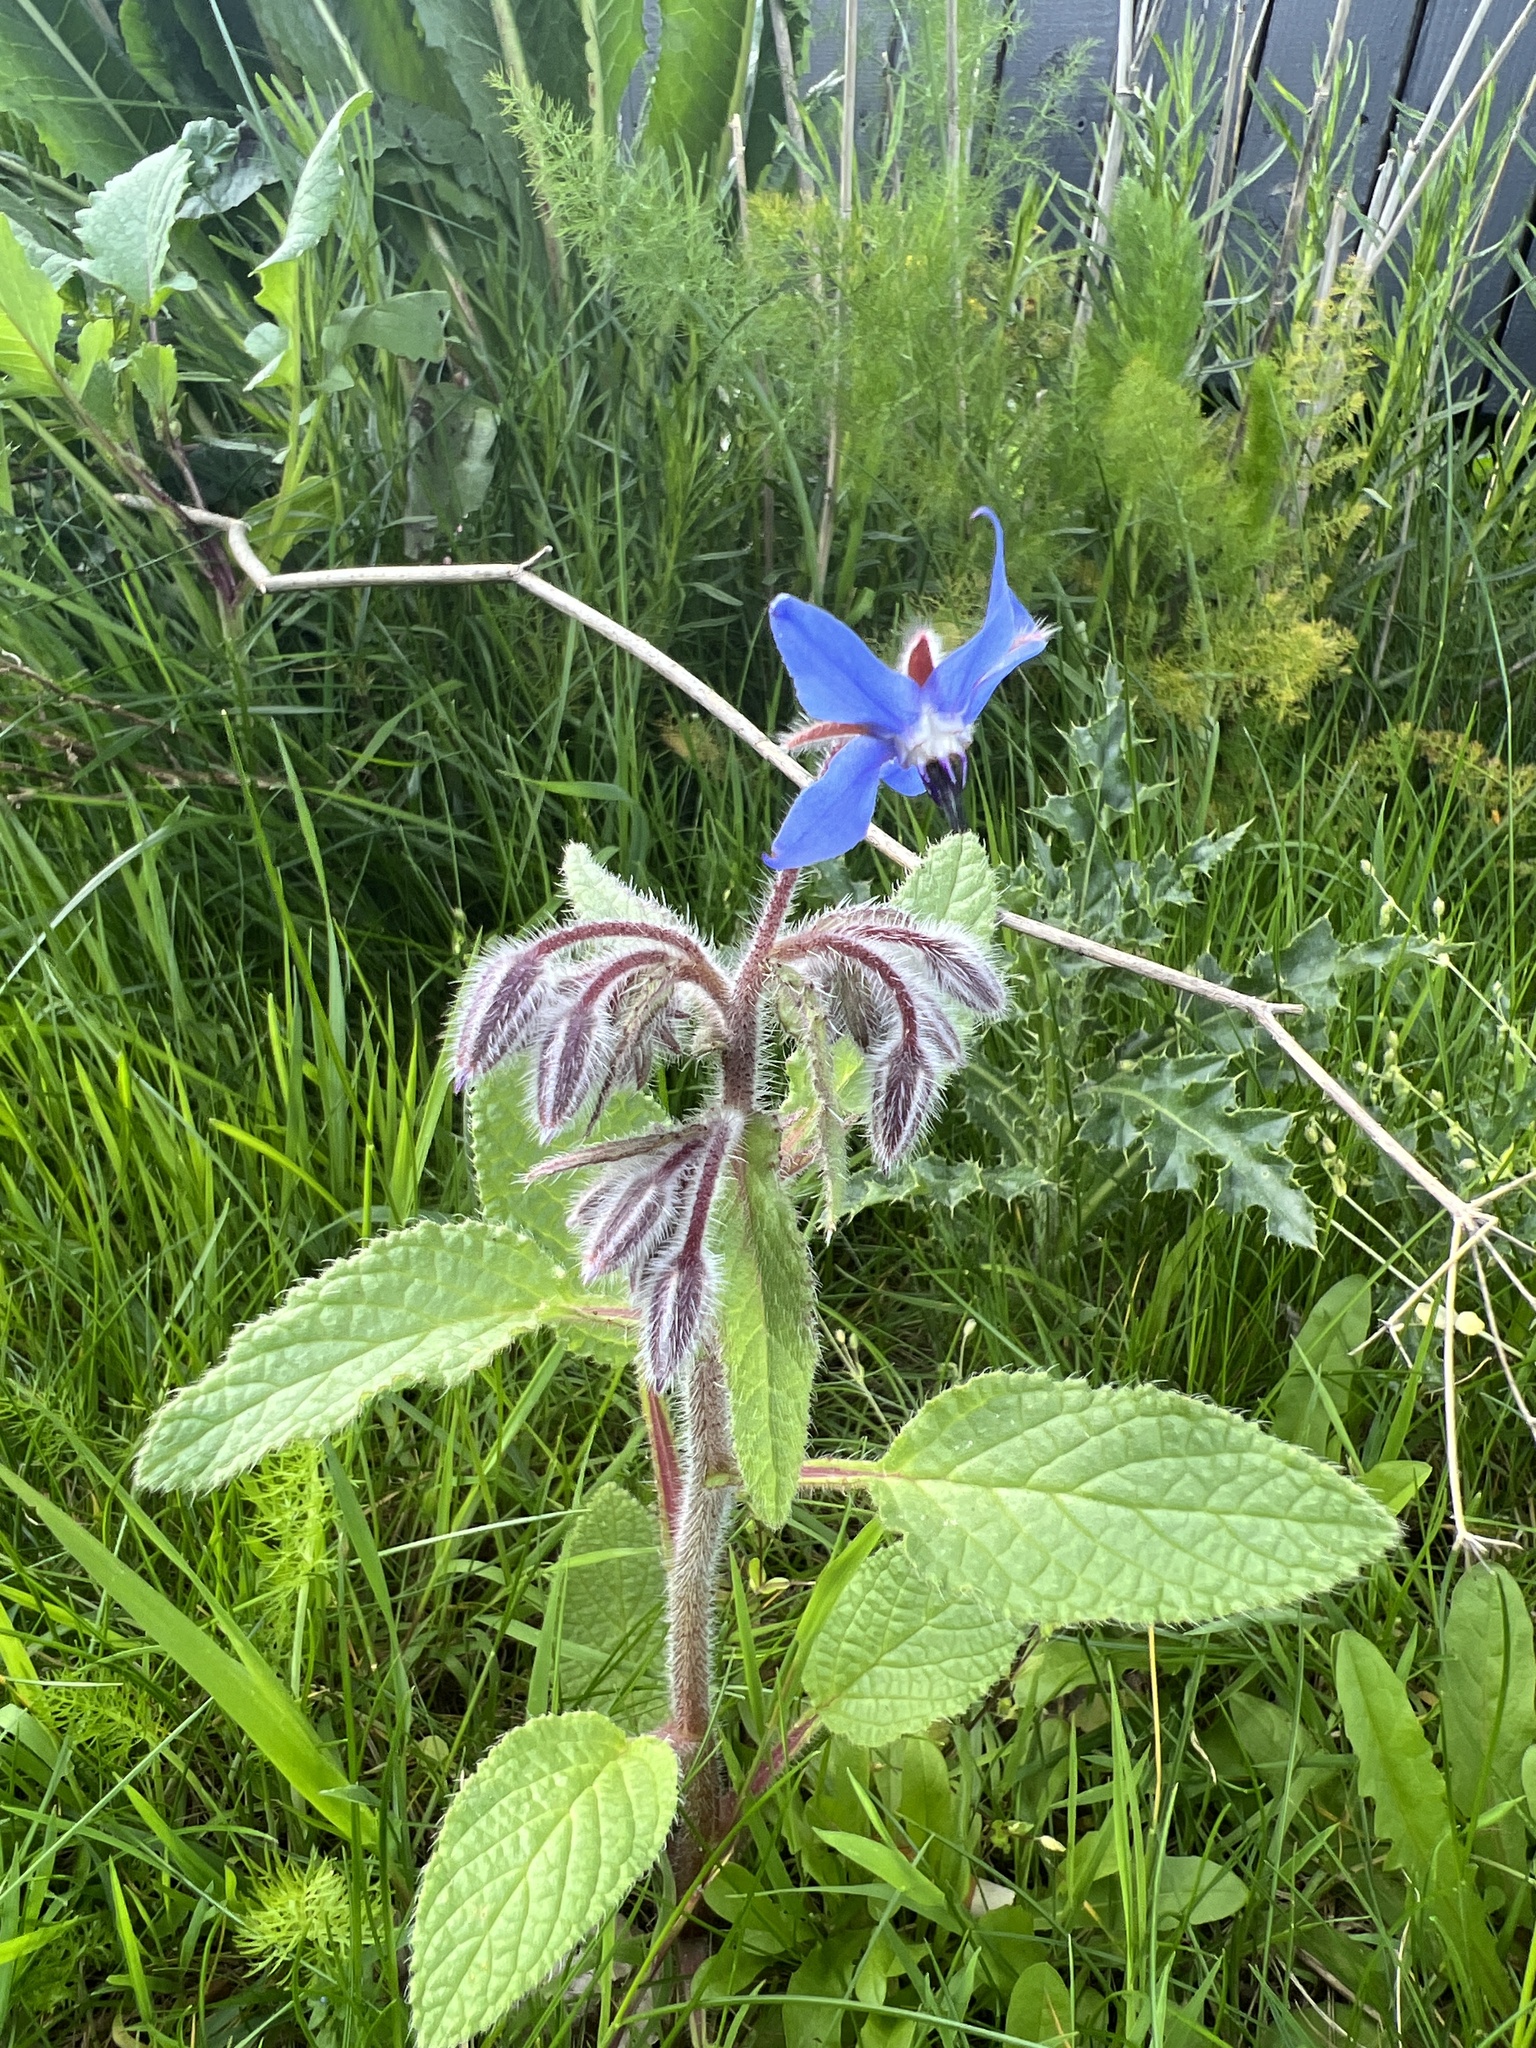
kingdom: Plantae
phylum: Tracheophyta
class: Magnoliopsida
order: Boraginales
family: Boraginaceae
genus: Borago
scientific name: Borago officinalis
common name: Borage
